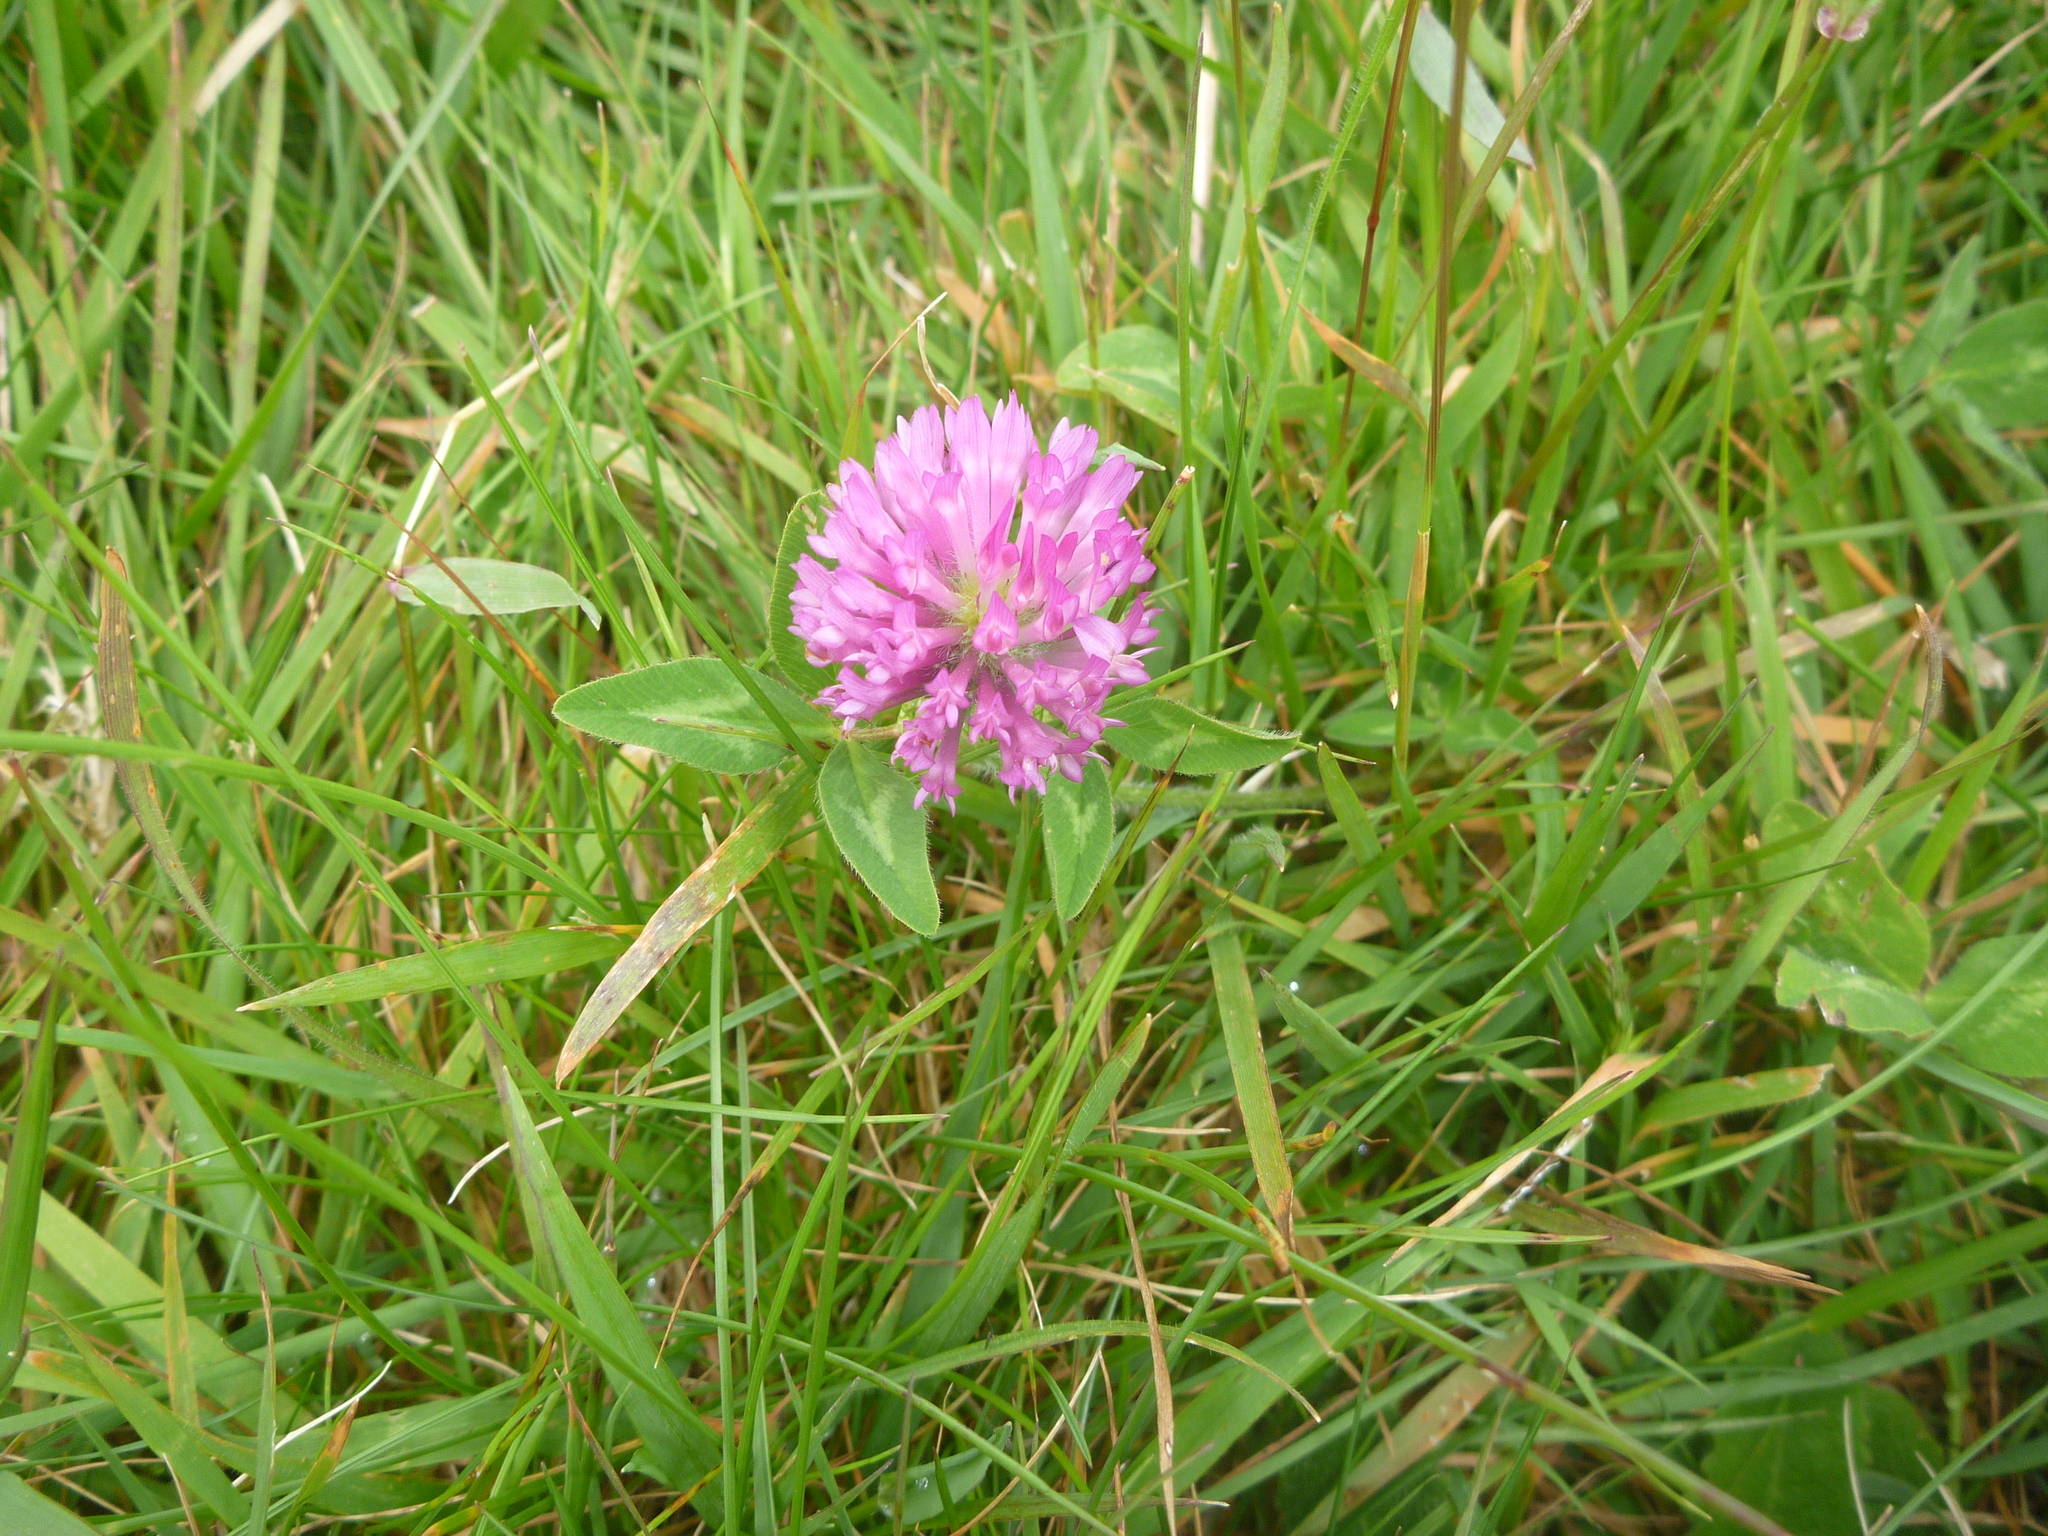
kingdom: Plantae
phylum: Tracheophyta
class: Magnoliopsida
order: Fabales
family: Fabaceae
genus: Trifolium
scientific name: Trifolium pratense
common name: Red clover
